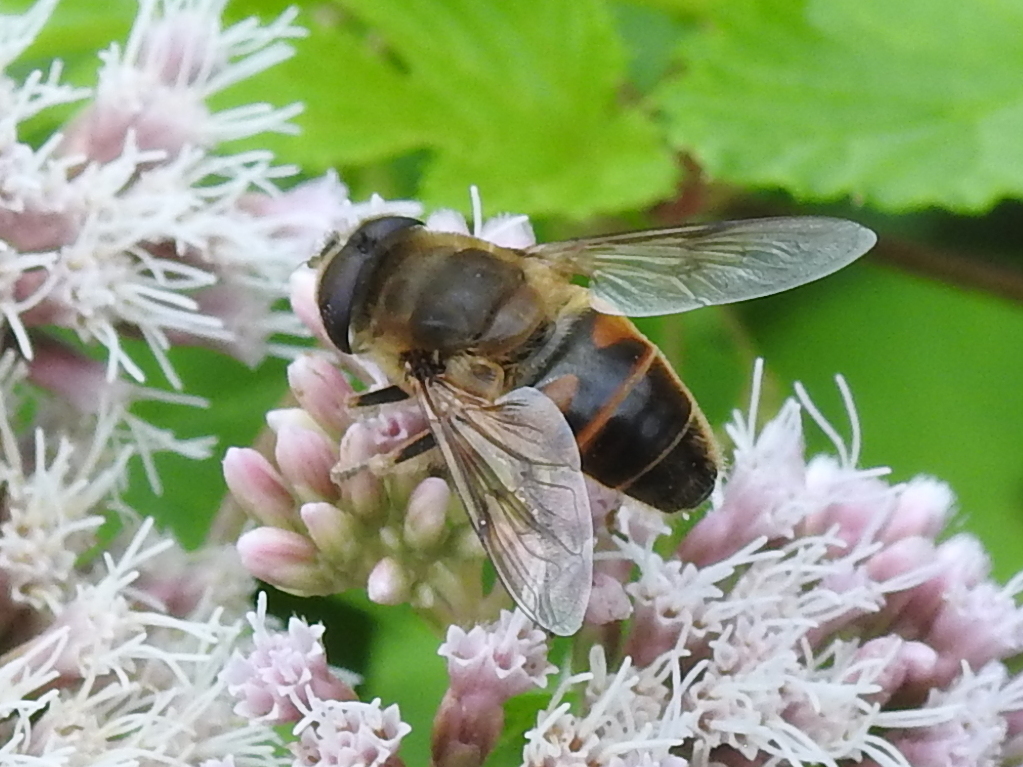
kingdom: Animalia
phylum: Arthropoda
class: Insecta
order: Diptera
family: Syrphidae
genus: Eristalis
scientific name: Eristalis tenax
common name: Drone fly
